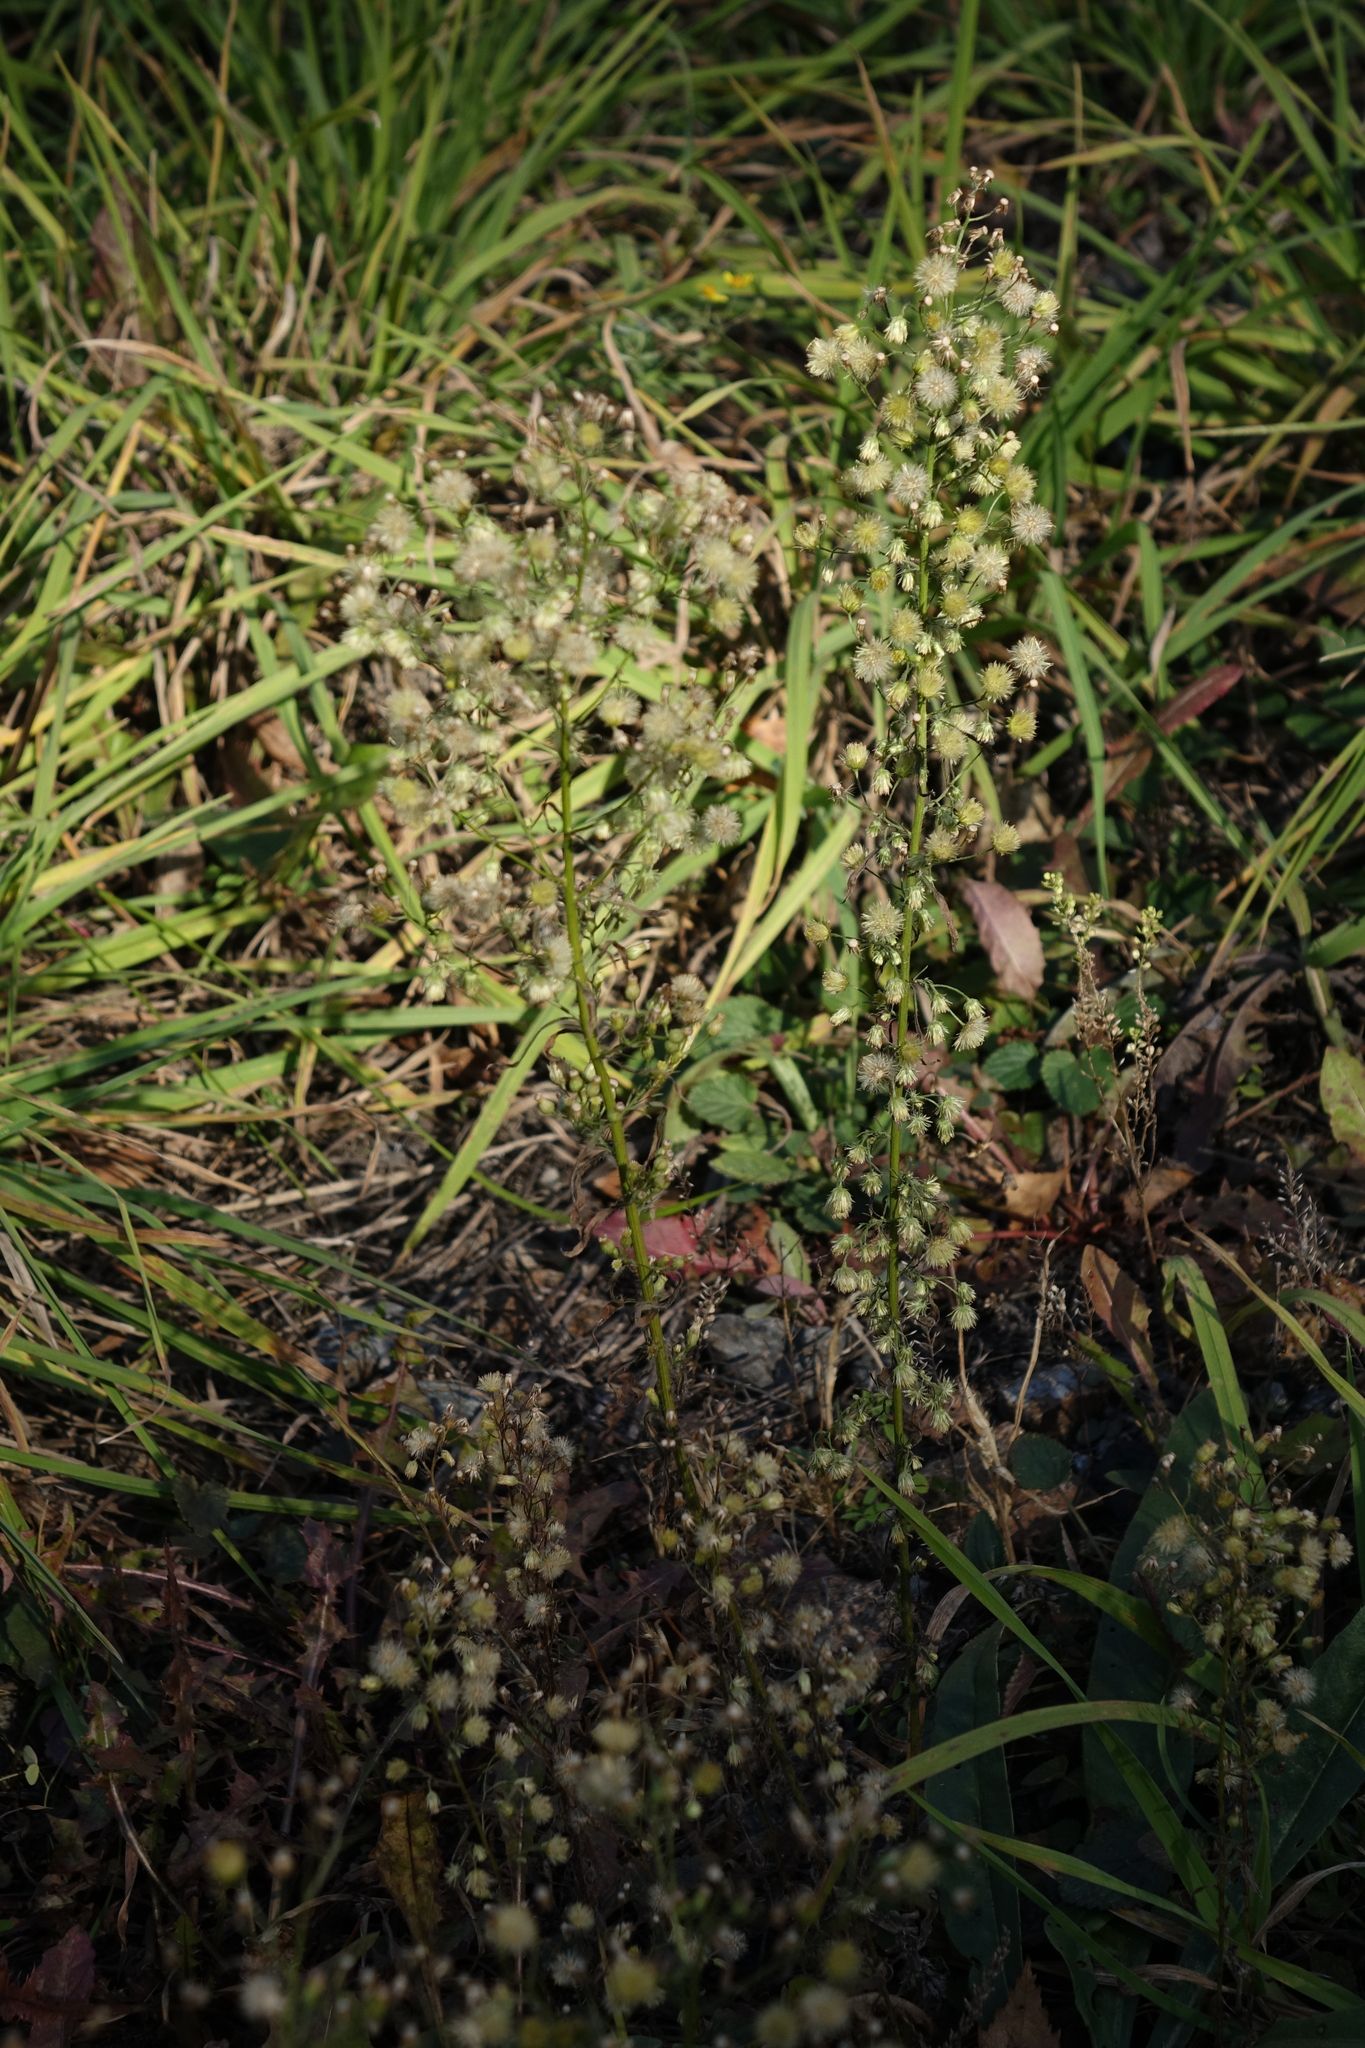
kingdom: Plantae
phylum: Tracheophyta
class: Magnoliopsida
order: Asterales
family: Asteraceae
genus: Erigeron
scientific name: Erigeron canadensis
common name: Canadian fleabane
